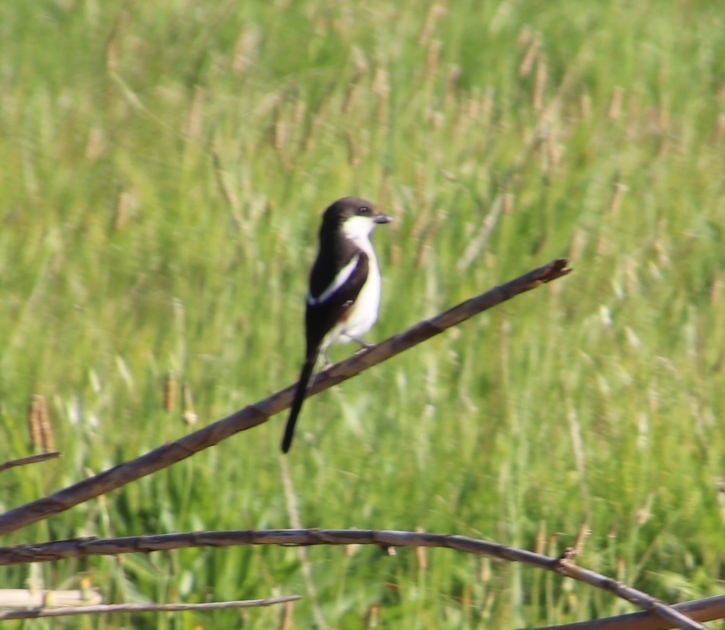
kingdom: Animalia
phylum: Chordata
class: Aves
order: Passeriformes
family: Laniidae
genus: Lanius
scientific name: Lanius collaris
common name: Southern fiscal
